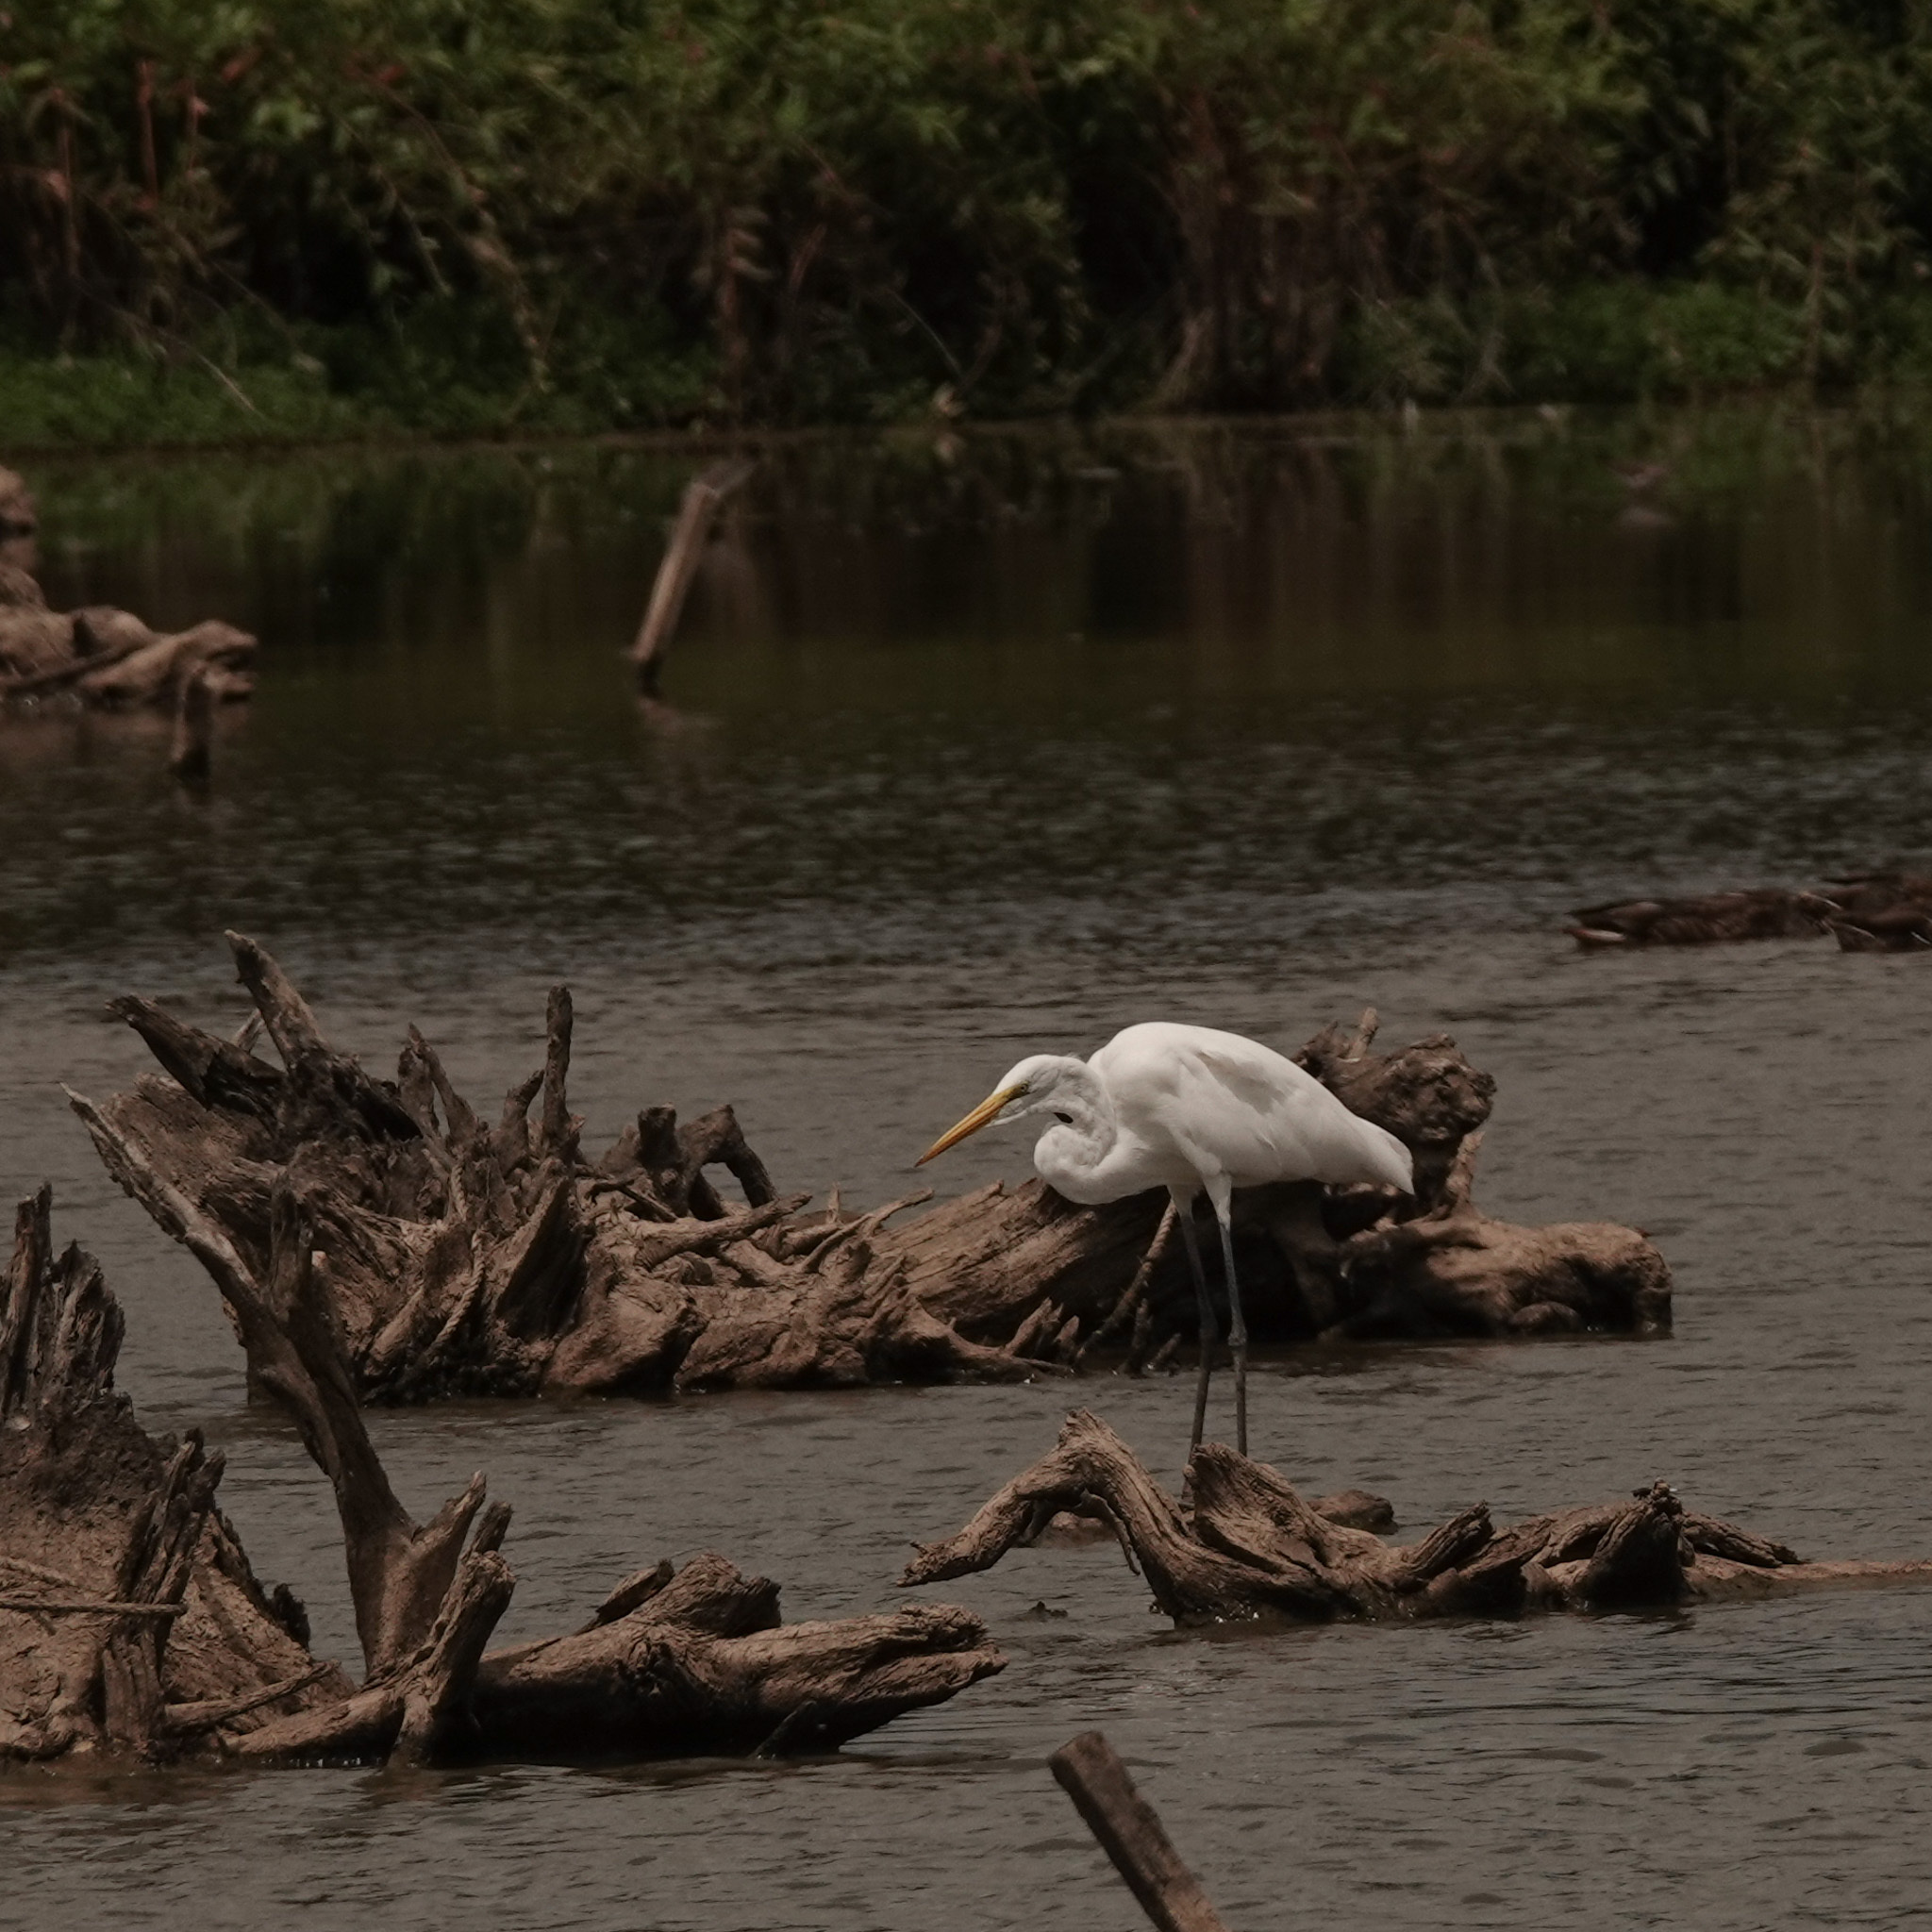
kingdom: Animalia
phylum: Chordata
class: Aves
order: Pelecaniformes
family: Ardeidae
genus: Ardea
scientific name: Ardea alba
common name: Great egret
